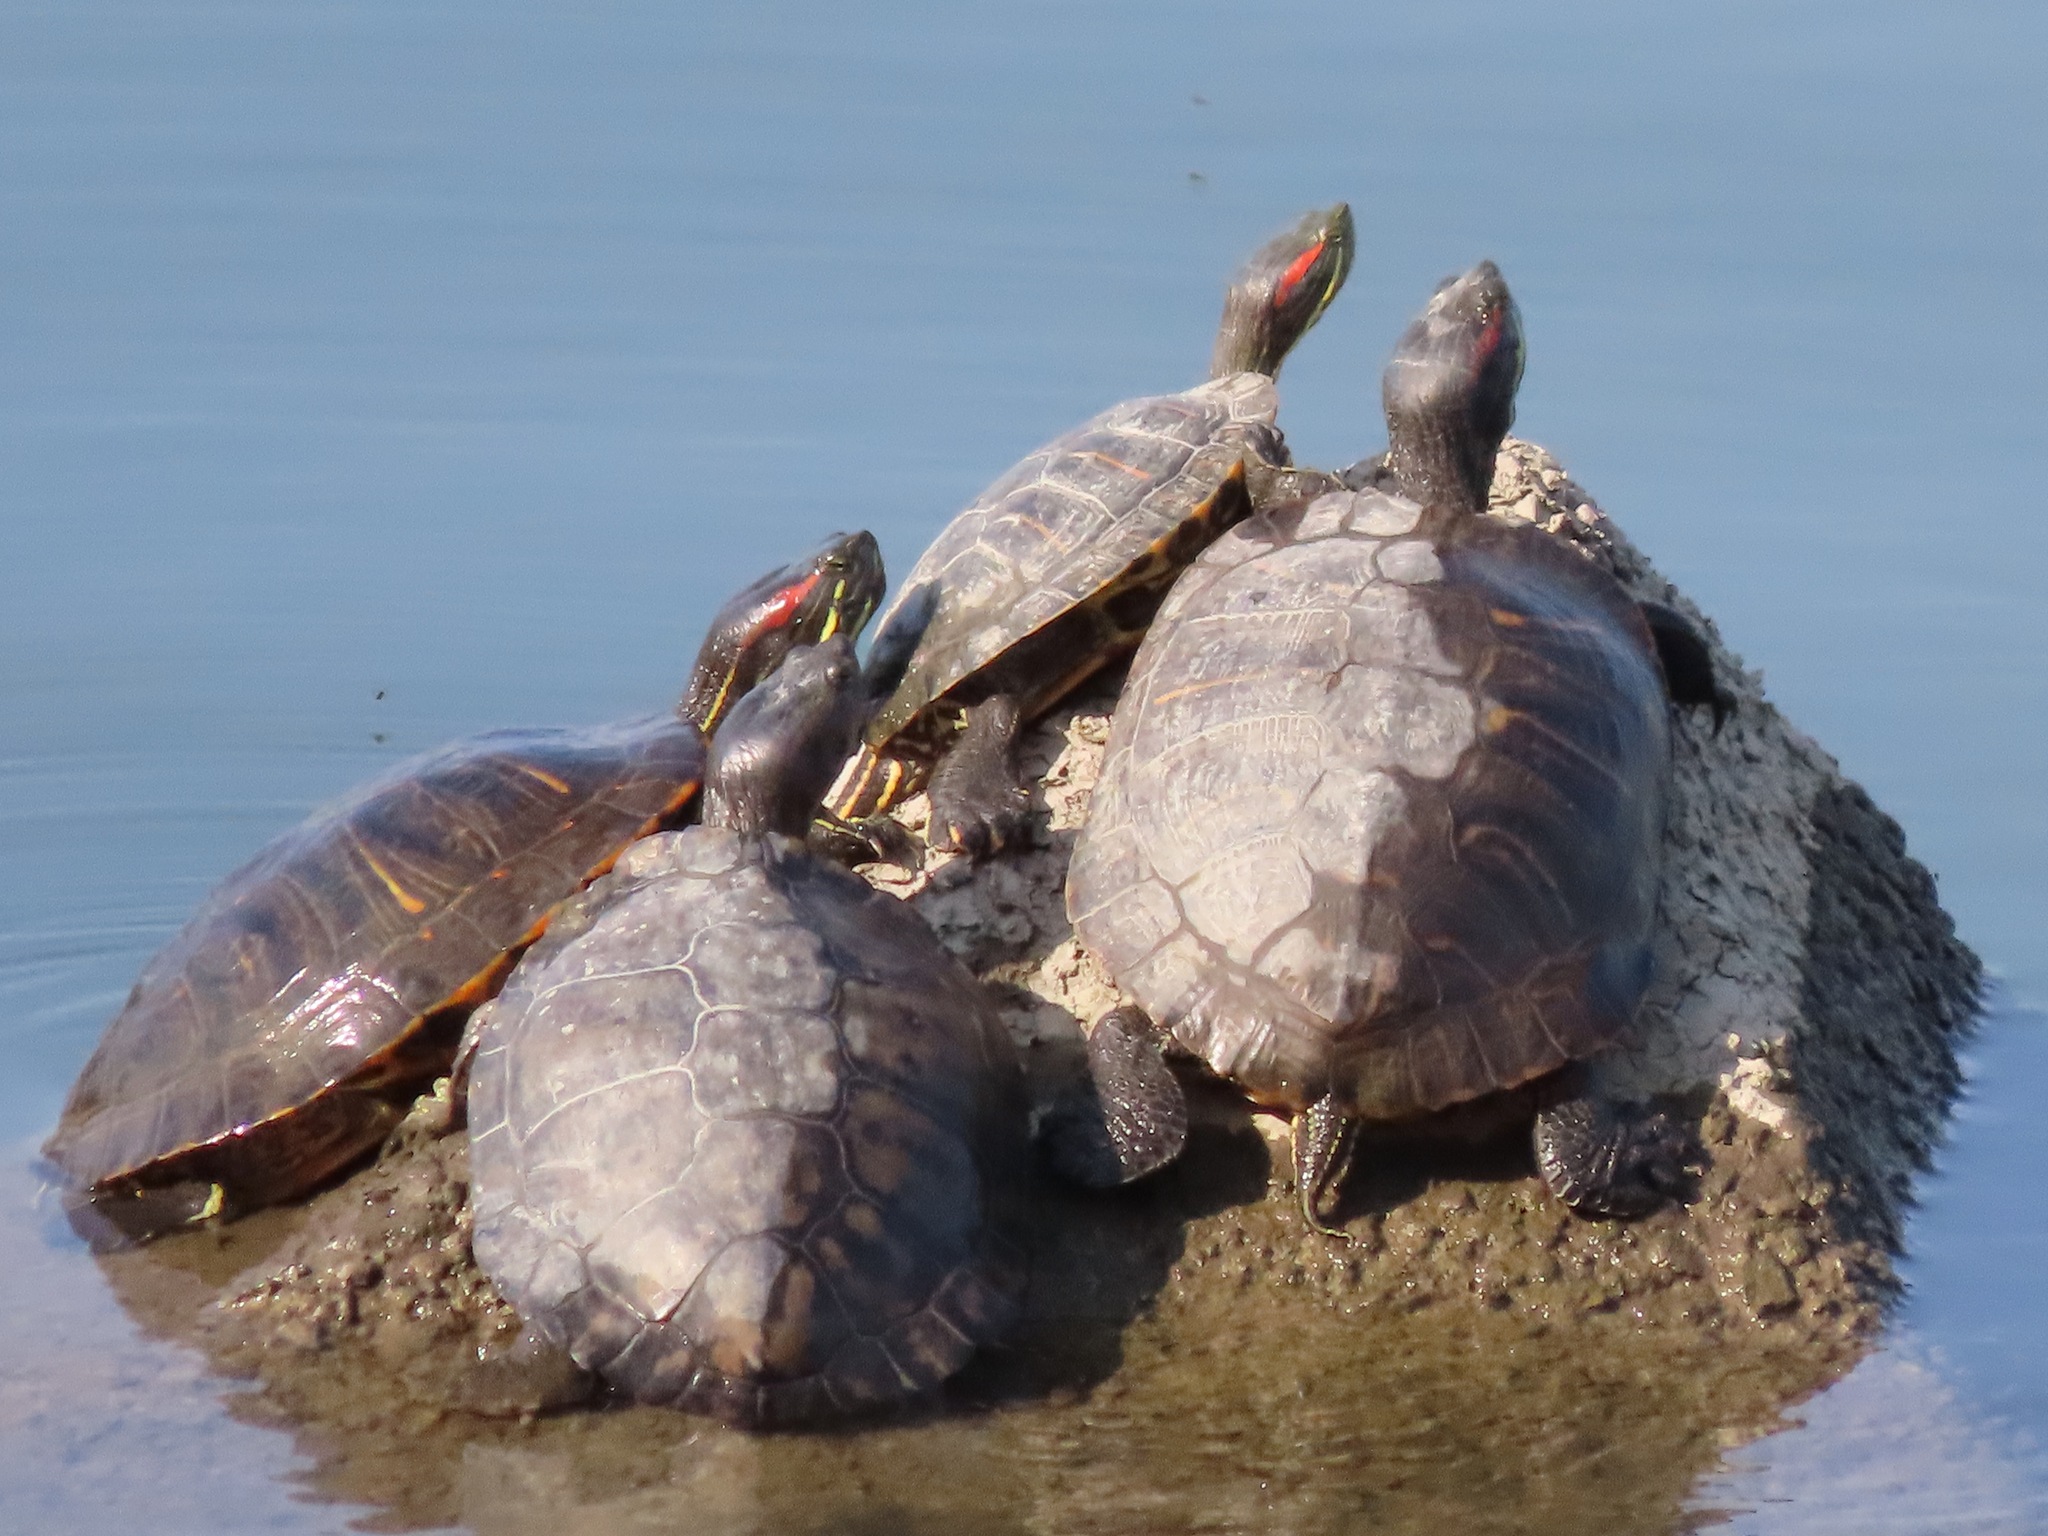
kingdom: Animalia
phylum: Chordata
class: Testudines
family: Emydidae
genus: Trachemys
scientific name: Trachemys scripta
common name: Slider
